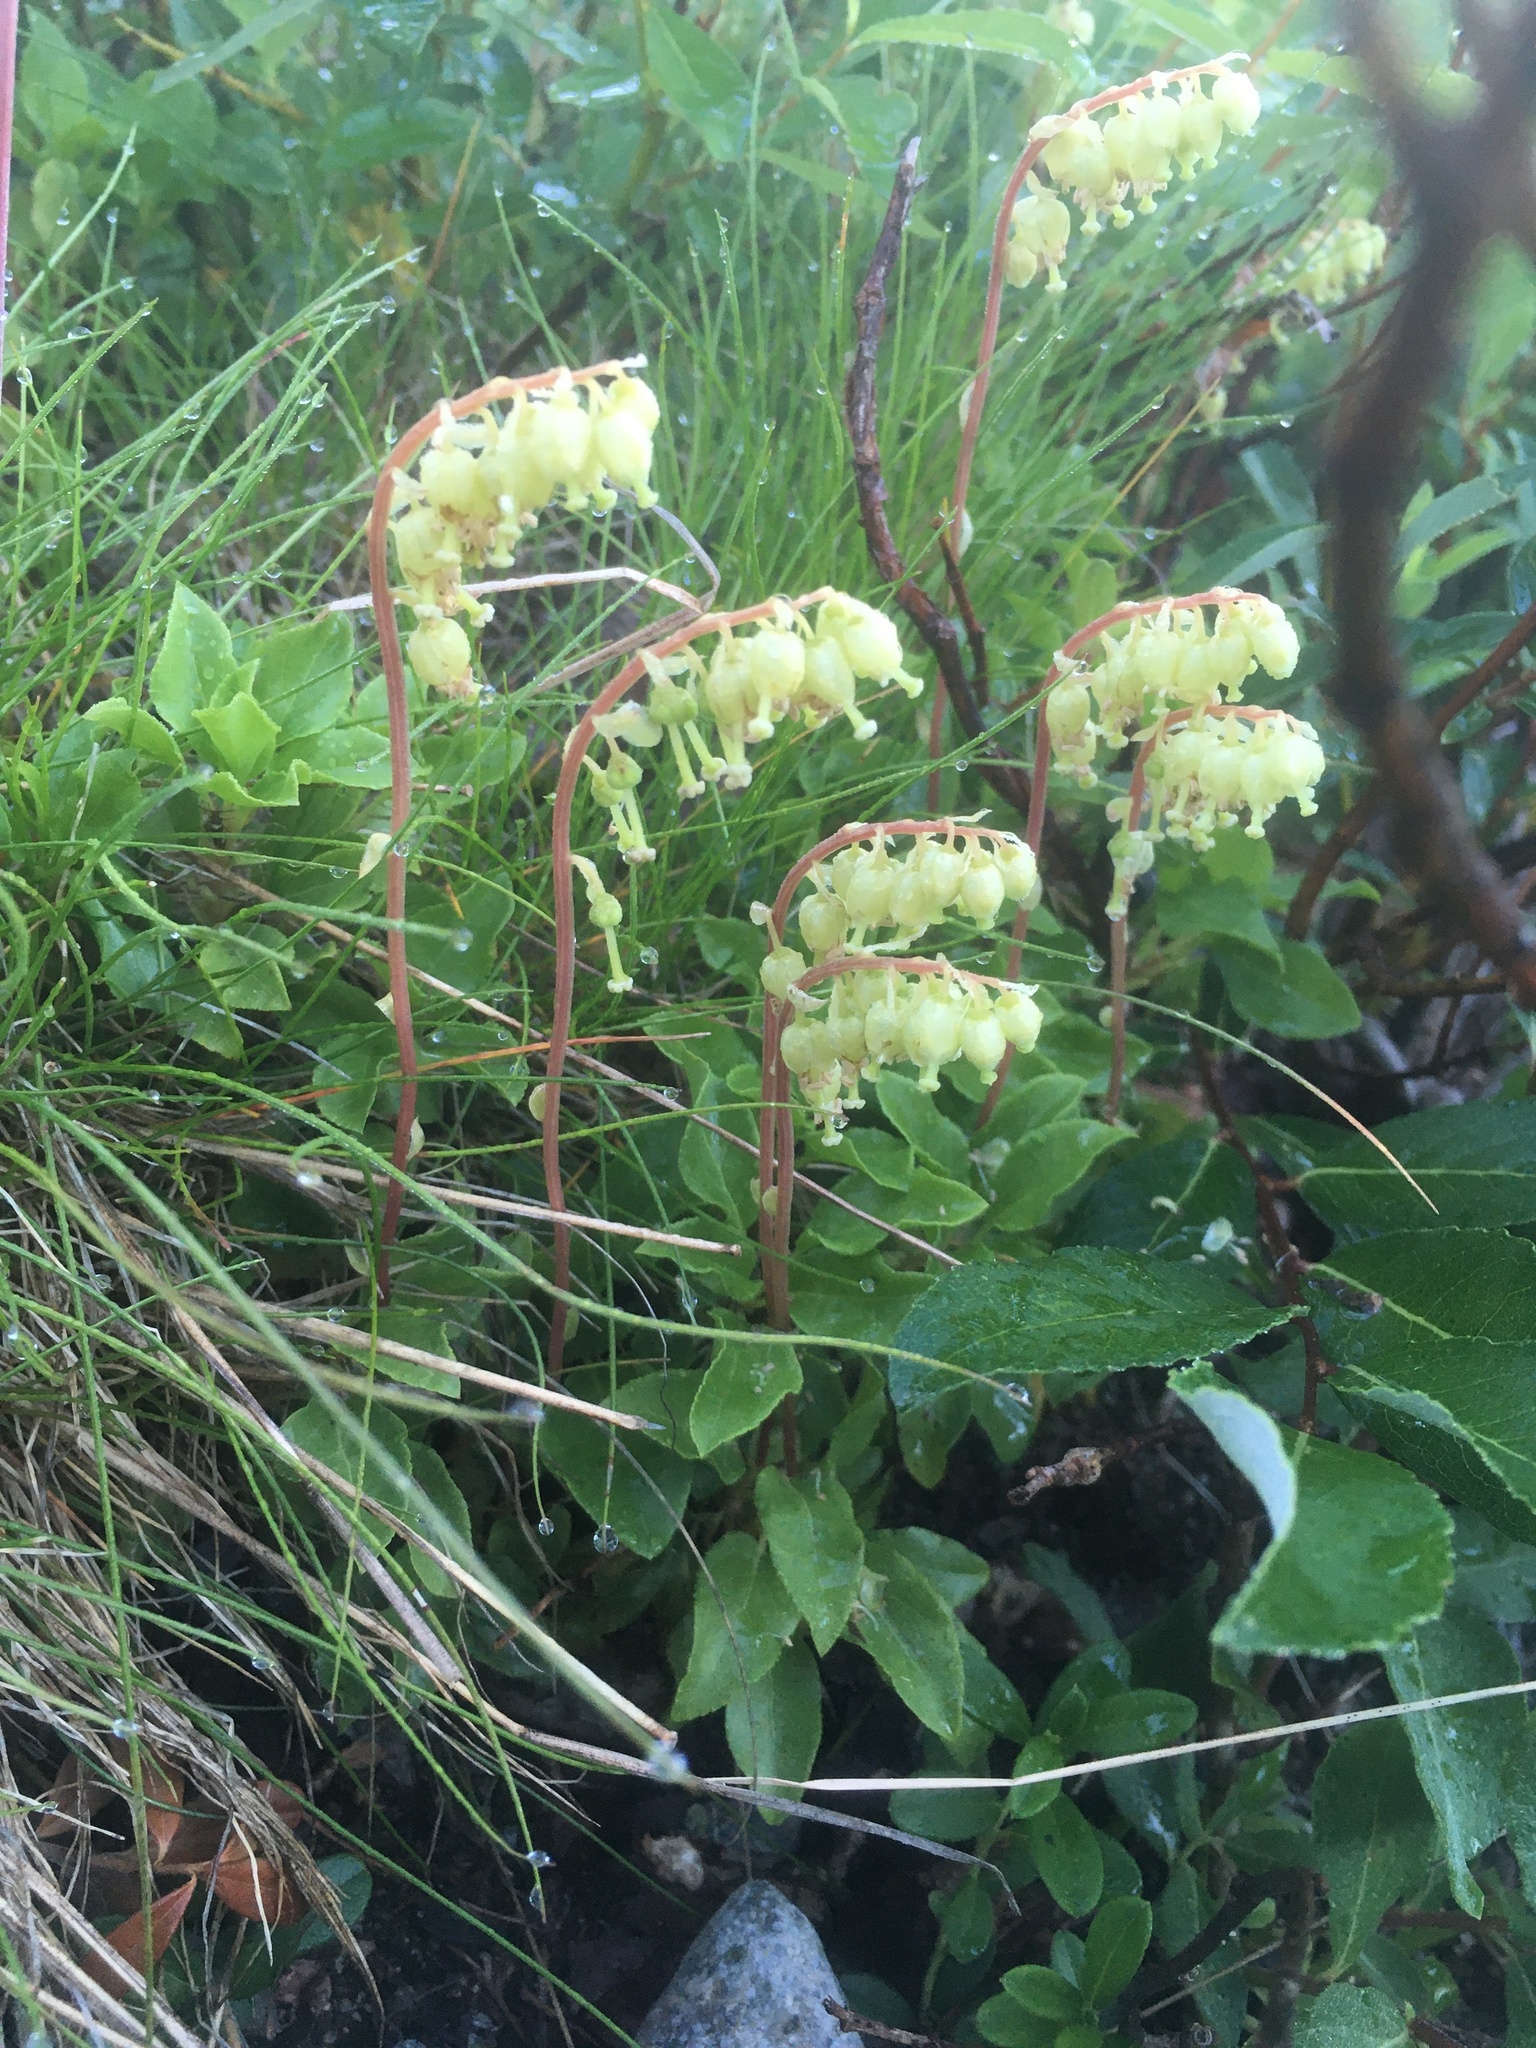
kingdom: Plantae
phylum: Tracheophyta
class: Magnoliopsida
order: Ericales
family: Ericaceae
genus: Orthilia
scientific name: Orthilia secunda
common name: One-sided orthilia
